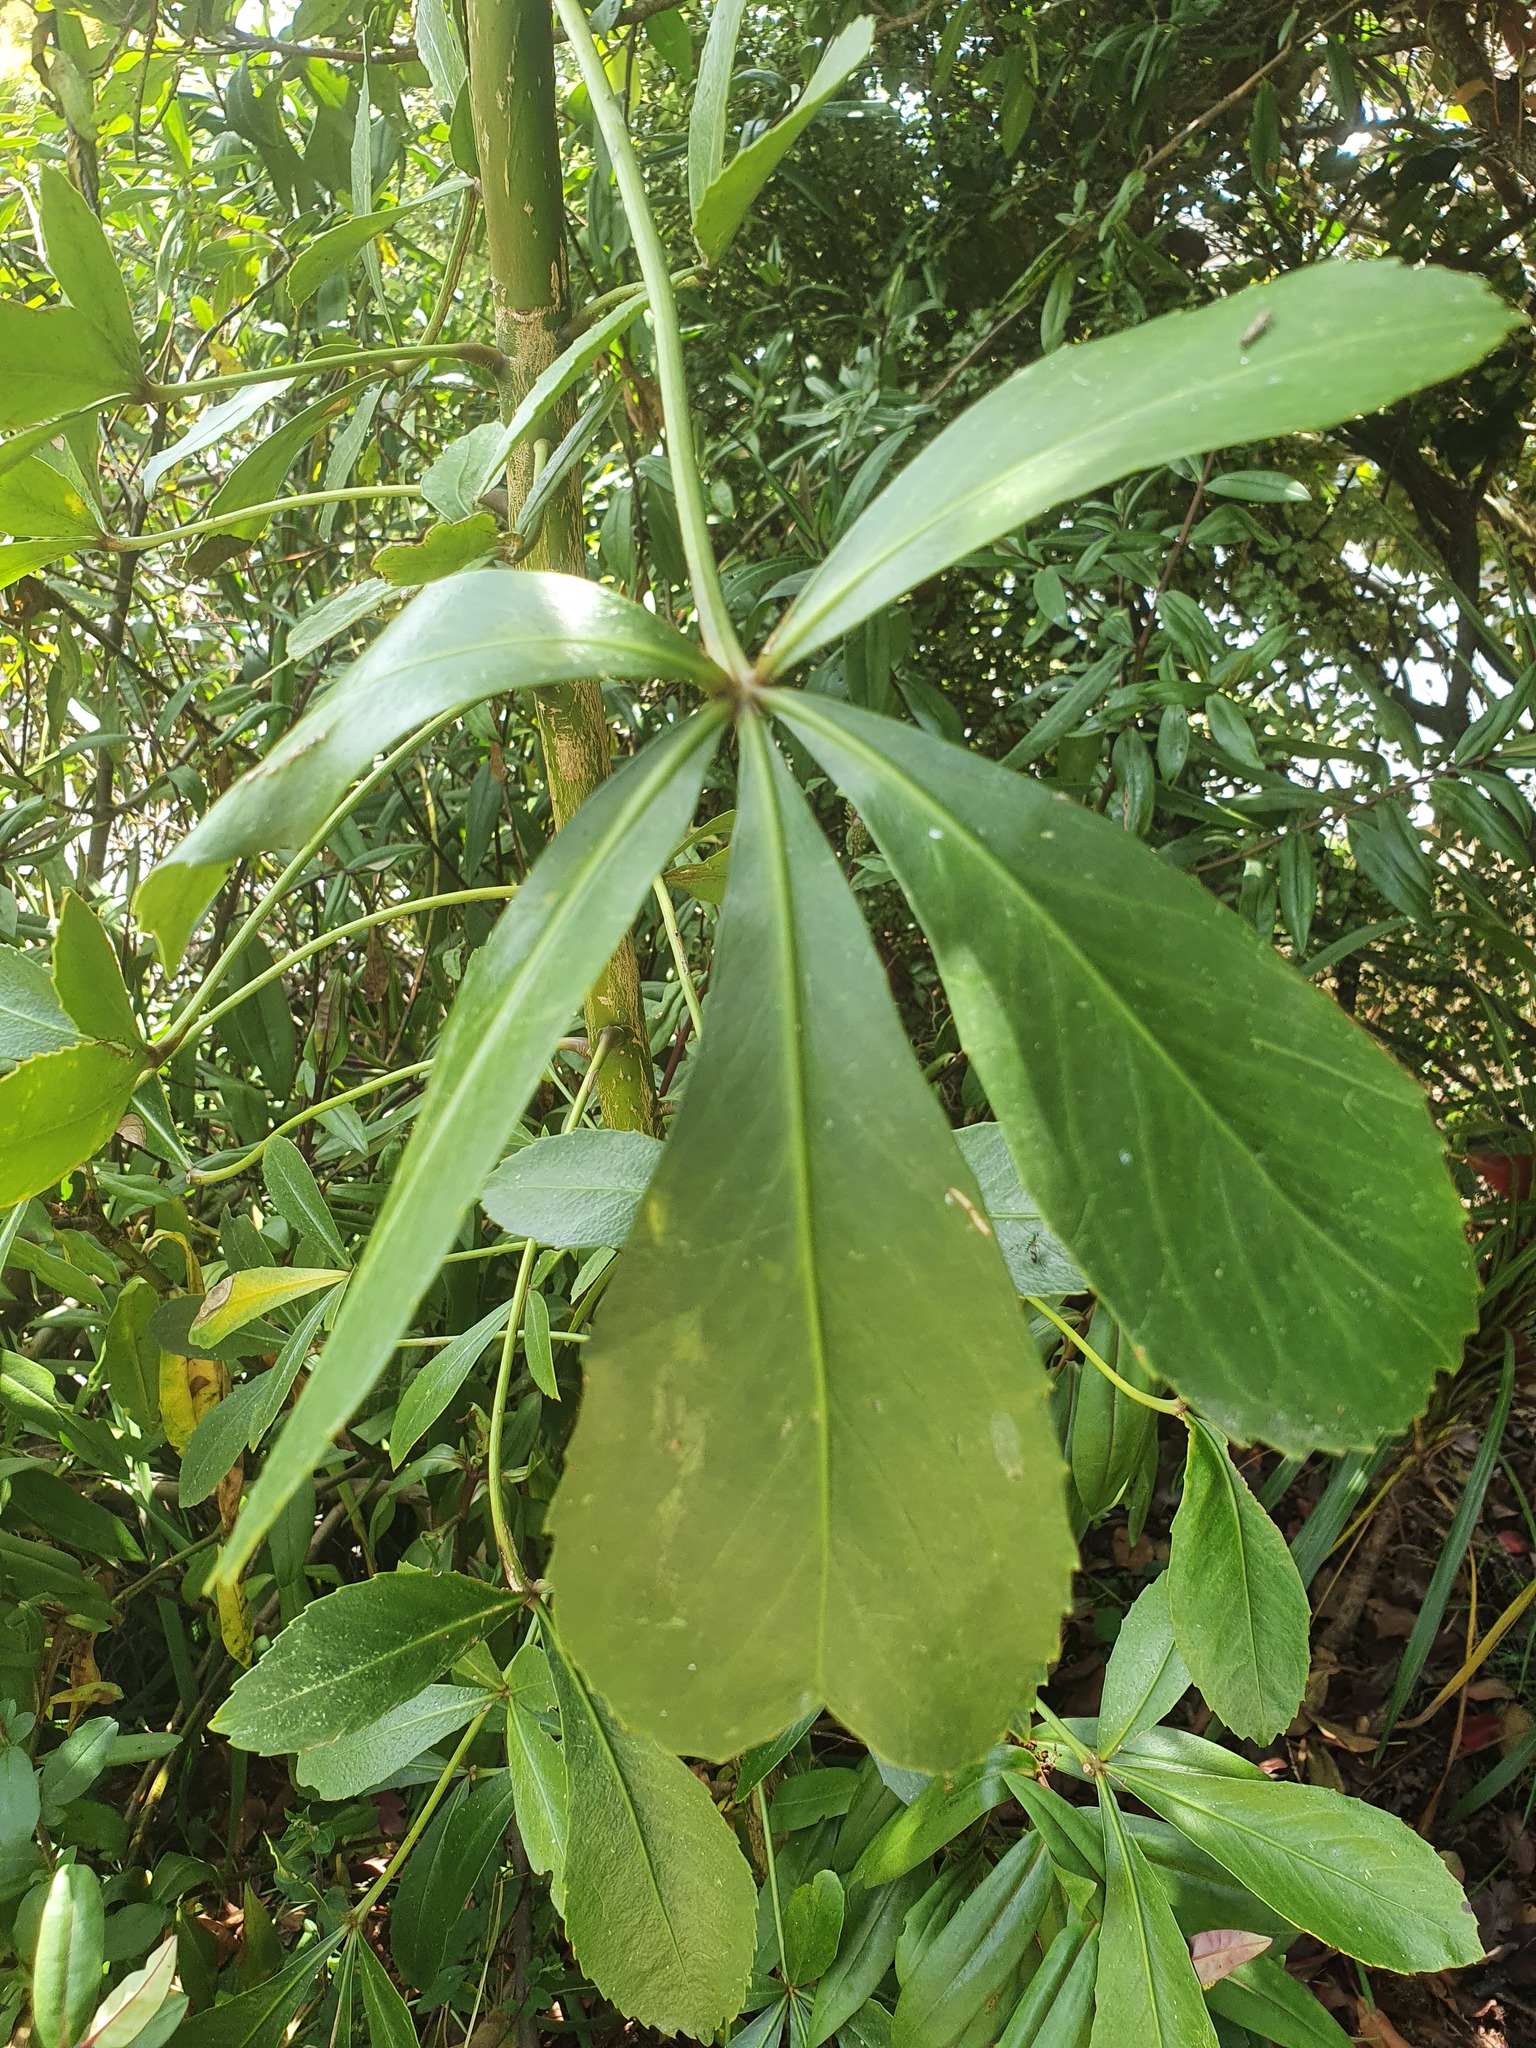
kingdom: Plantae
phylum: Tracheophyta
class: Magnoliopsida
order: Apiales
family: Araliaceae
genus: Pseudopanax
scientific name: Pseudopanax lessonii
